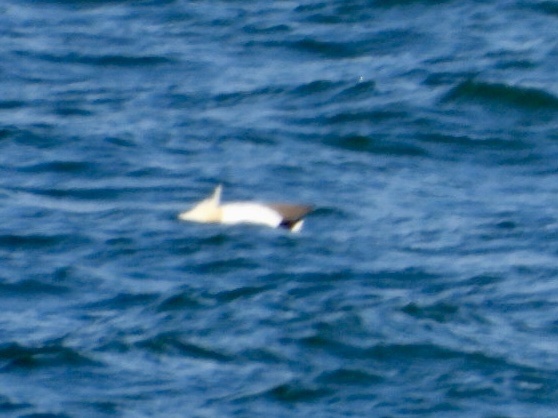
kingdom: Animalia
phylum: Chordata
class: Aves
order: Suliformes
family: Sulidae
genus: Morus
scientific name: Morus bassanus
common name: Northern gannet
